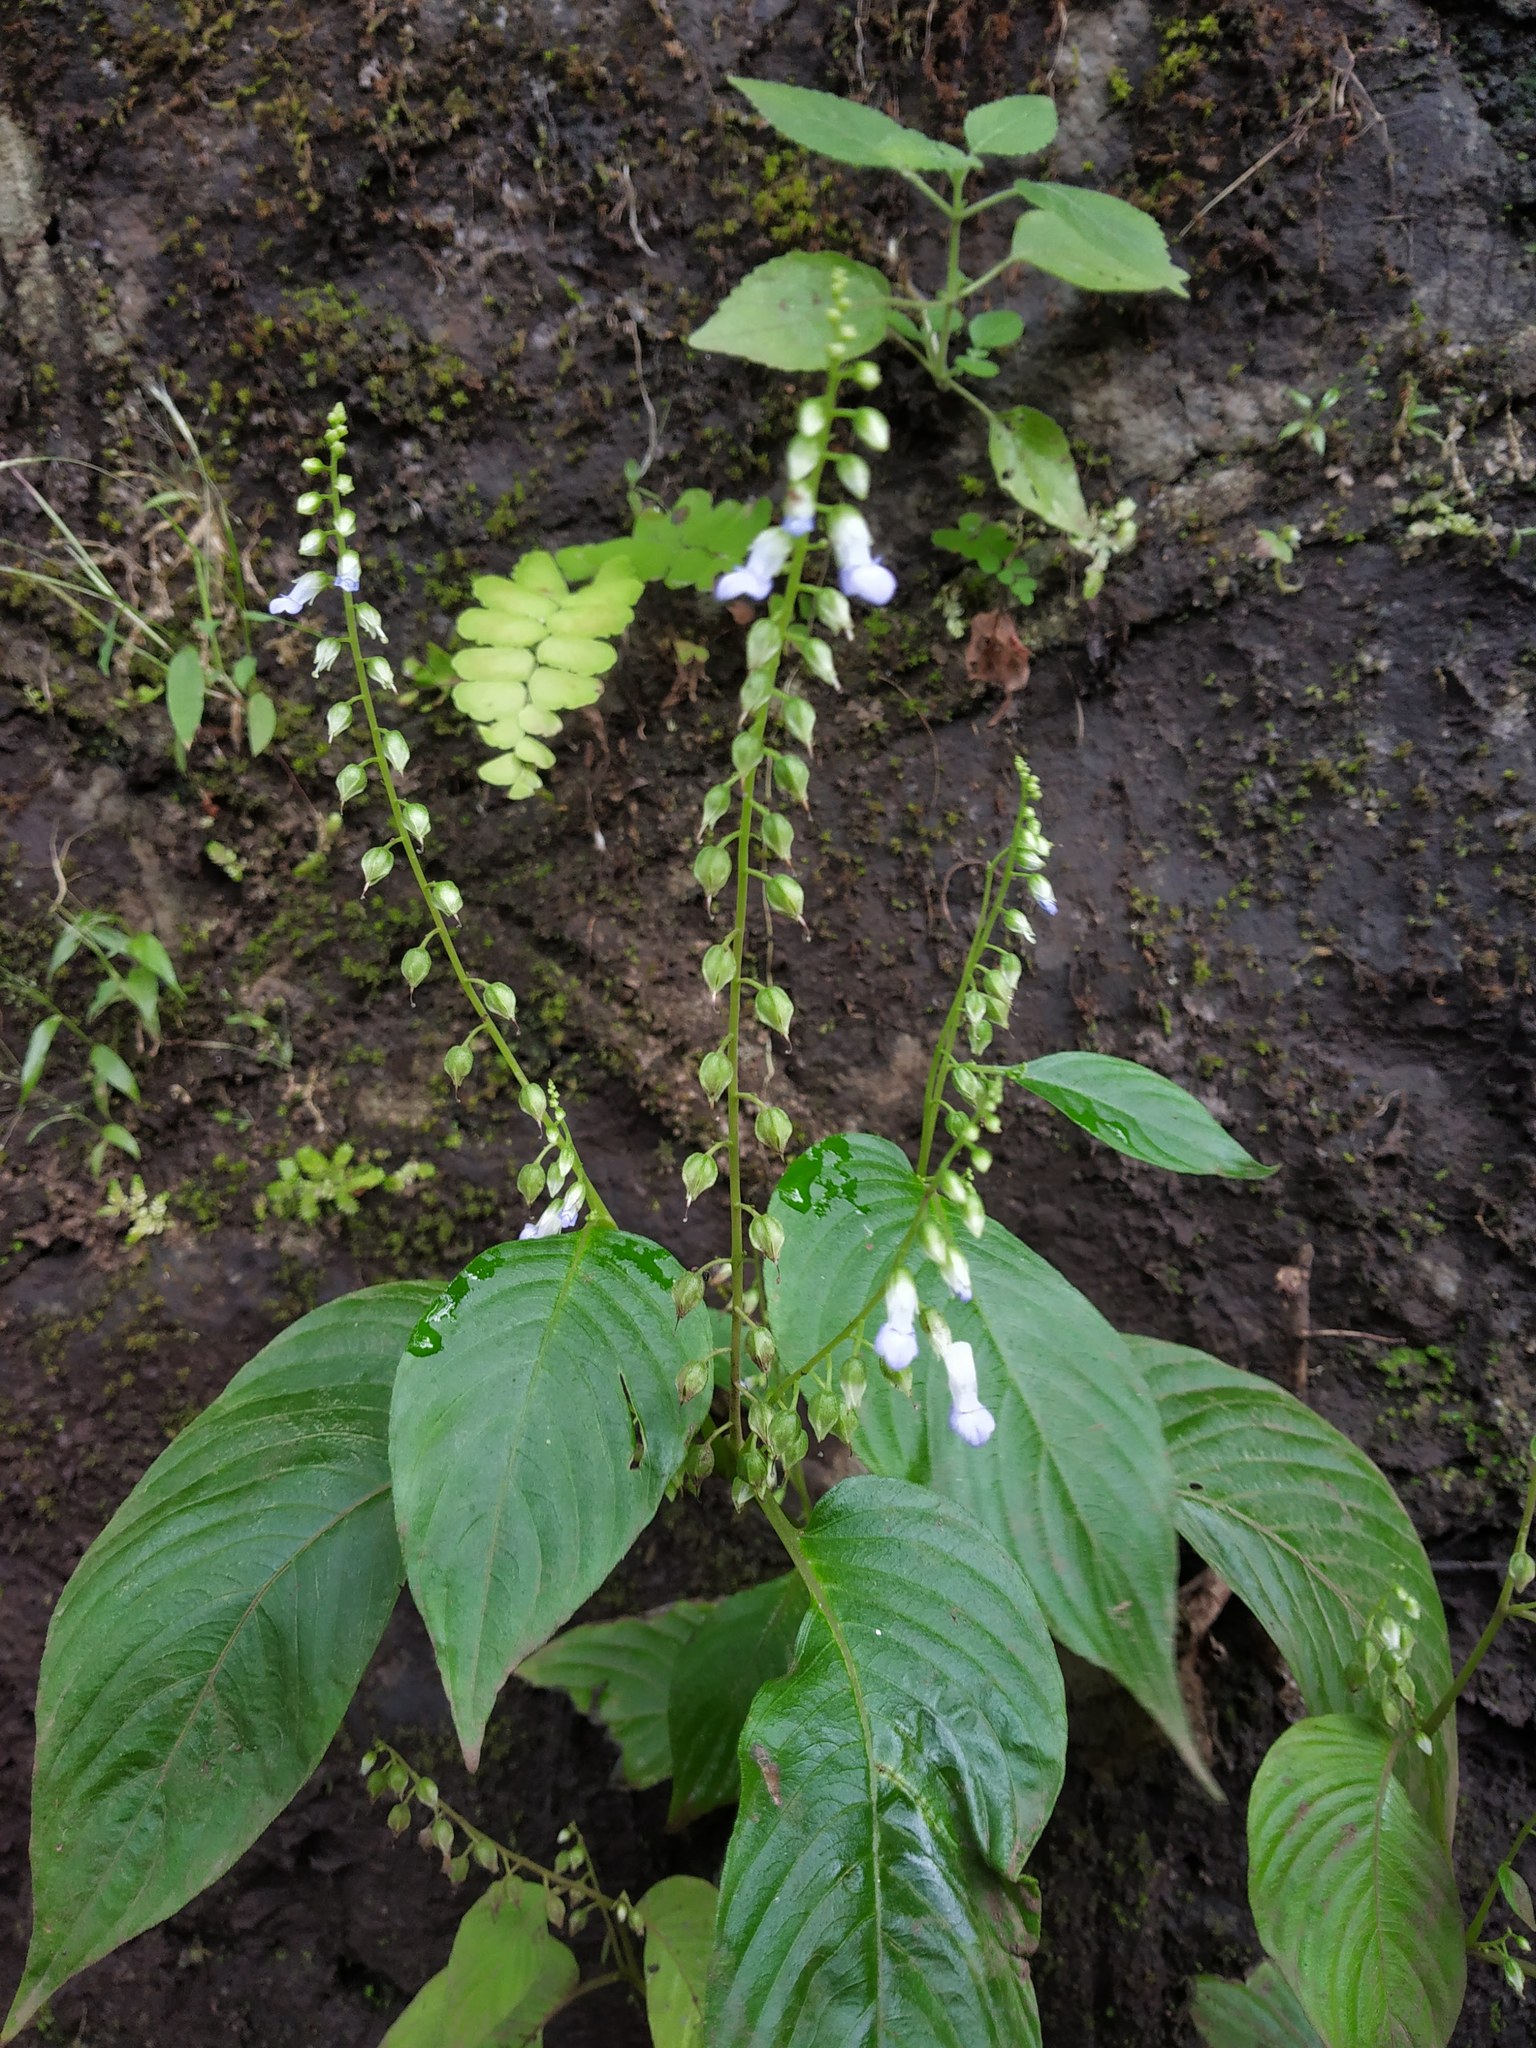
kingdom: Plantae
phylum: Tracheophyta
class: Magnoliopsida
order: Lamiales
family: Gesneriaceae
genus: Rhynchoglossum
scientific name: Rhynchoglossum obliquum
